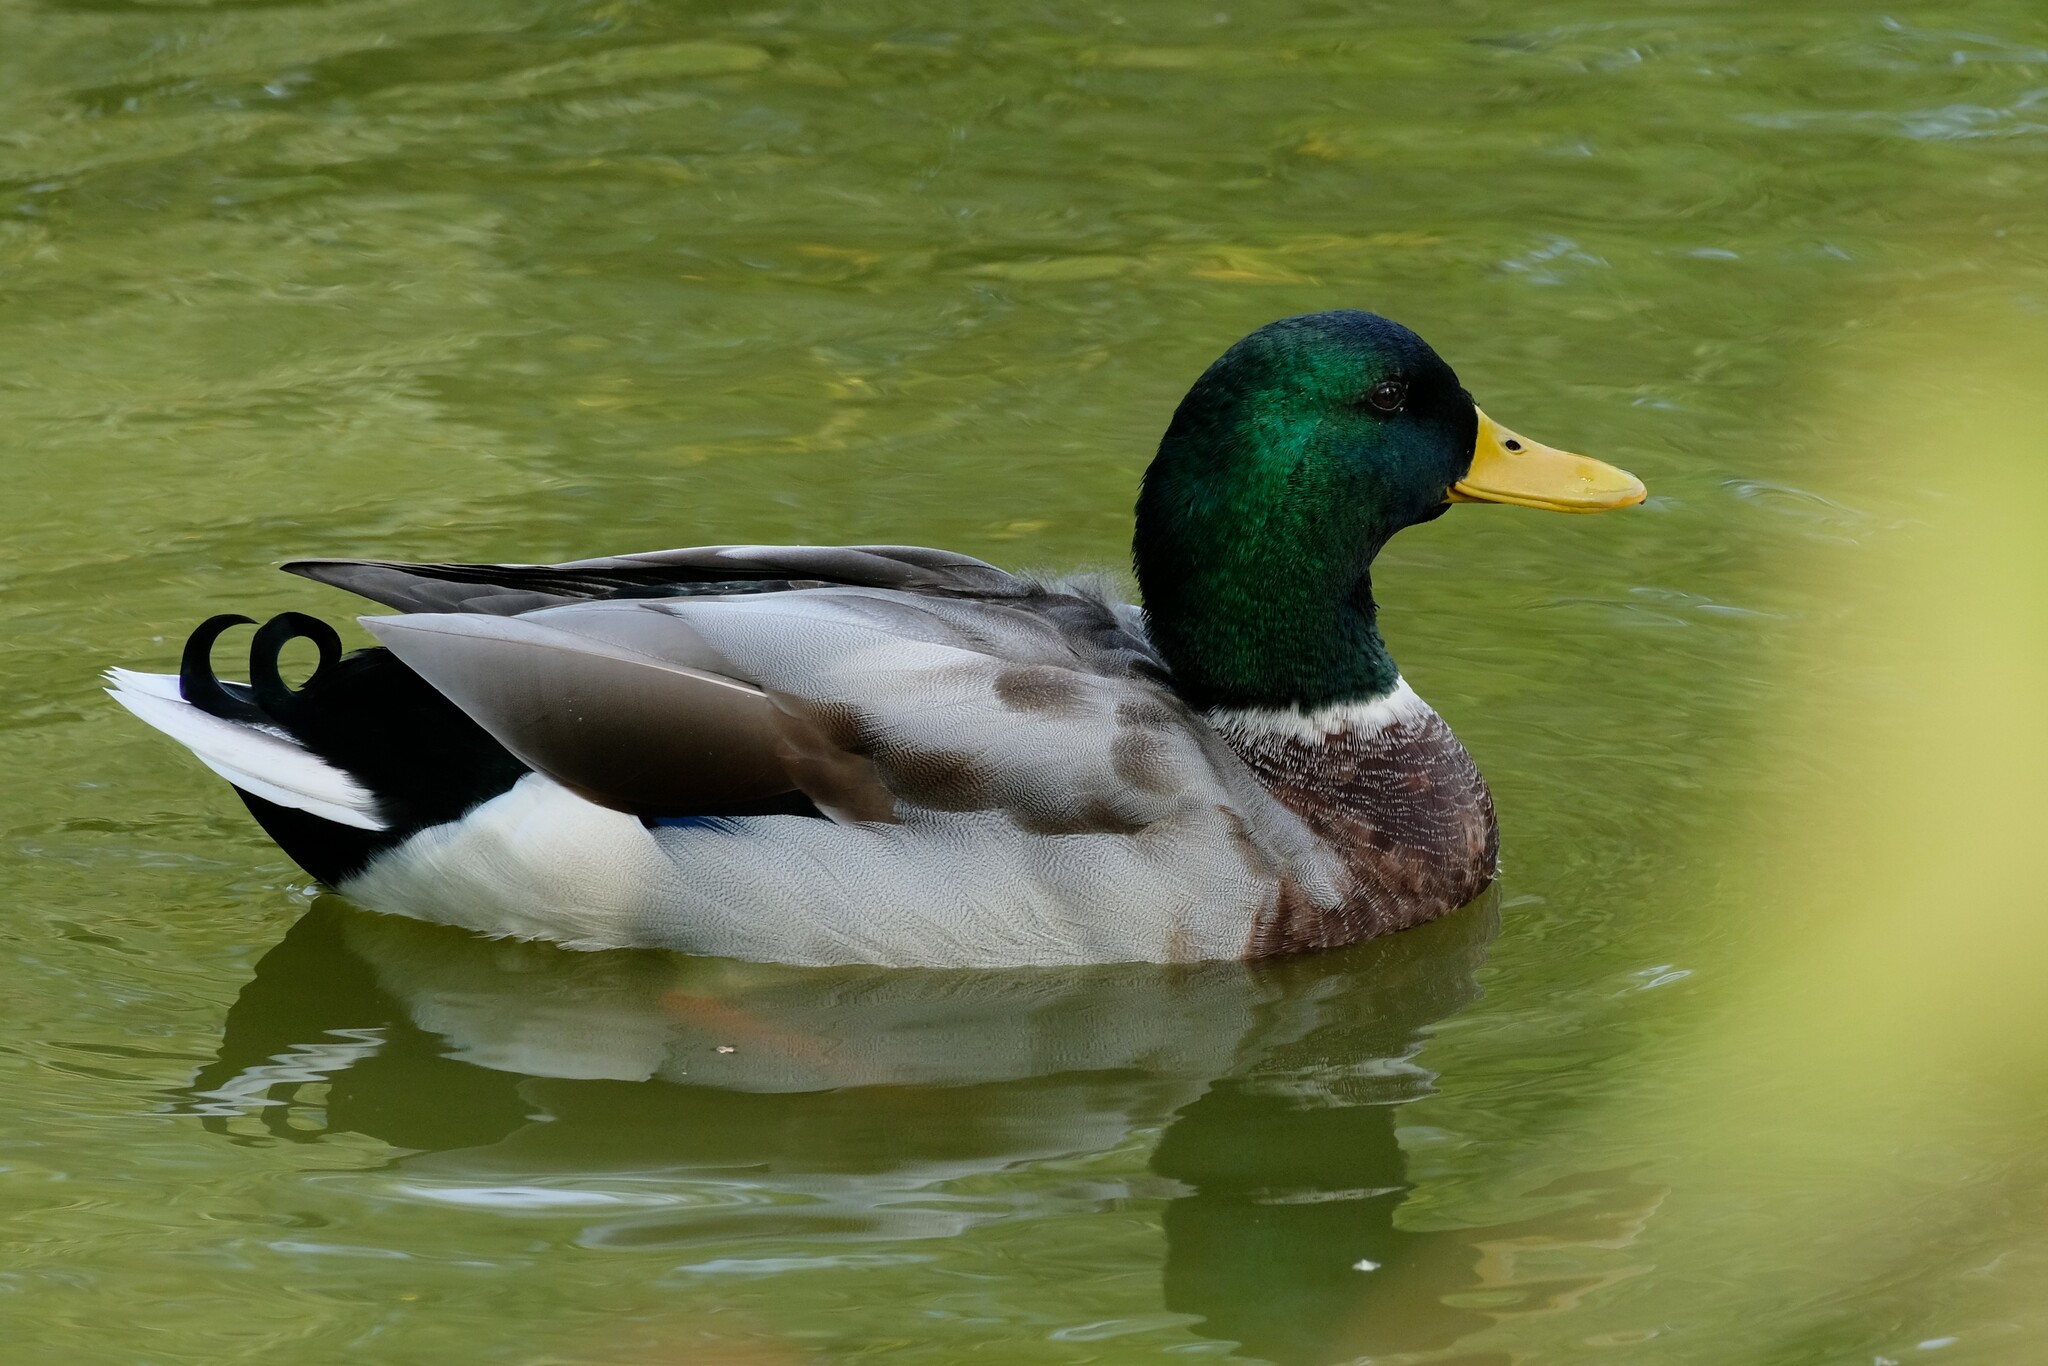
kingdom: Animalia
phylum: Chordata
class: Aves
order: Anseriformes
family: Anatidae
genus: Anas
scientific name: Anas platyrhynchos
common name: Mallard
